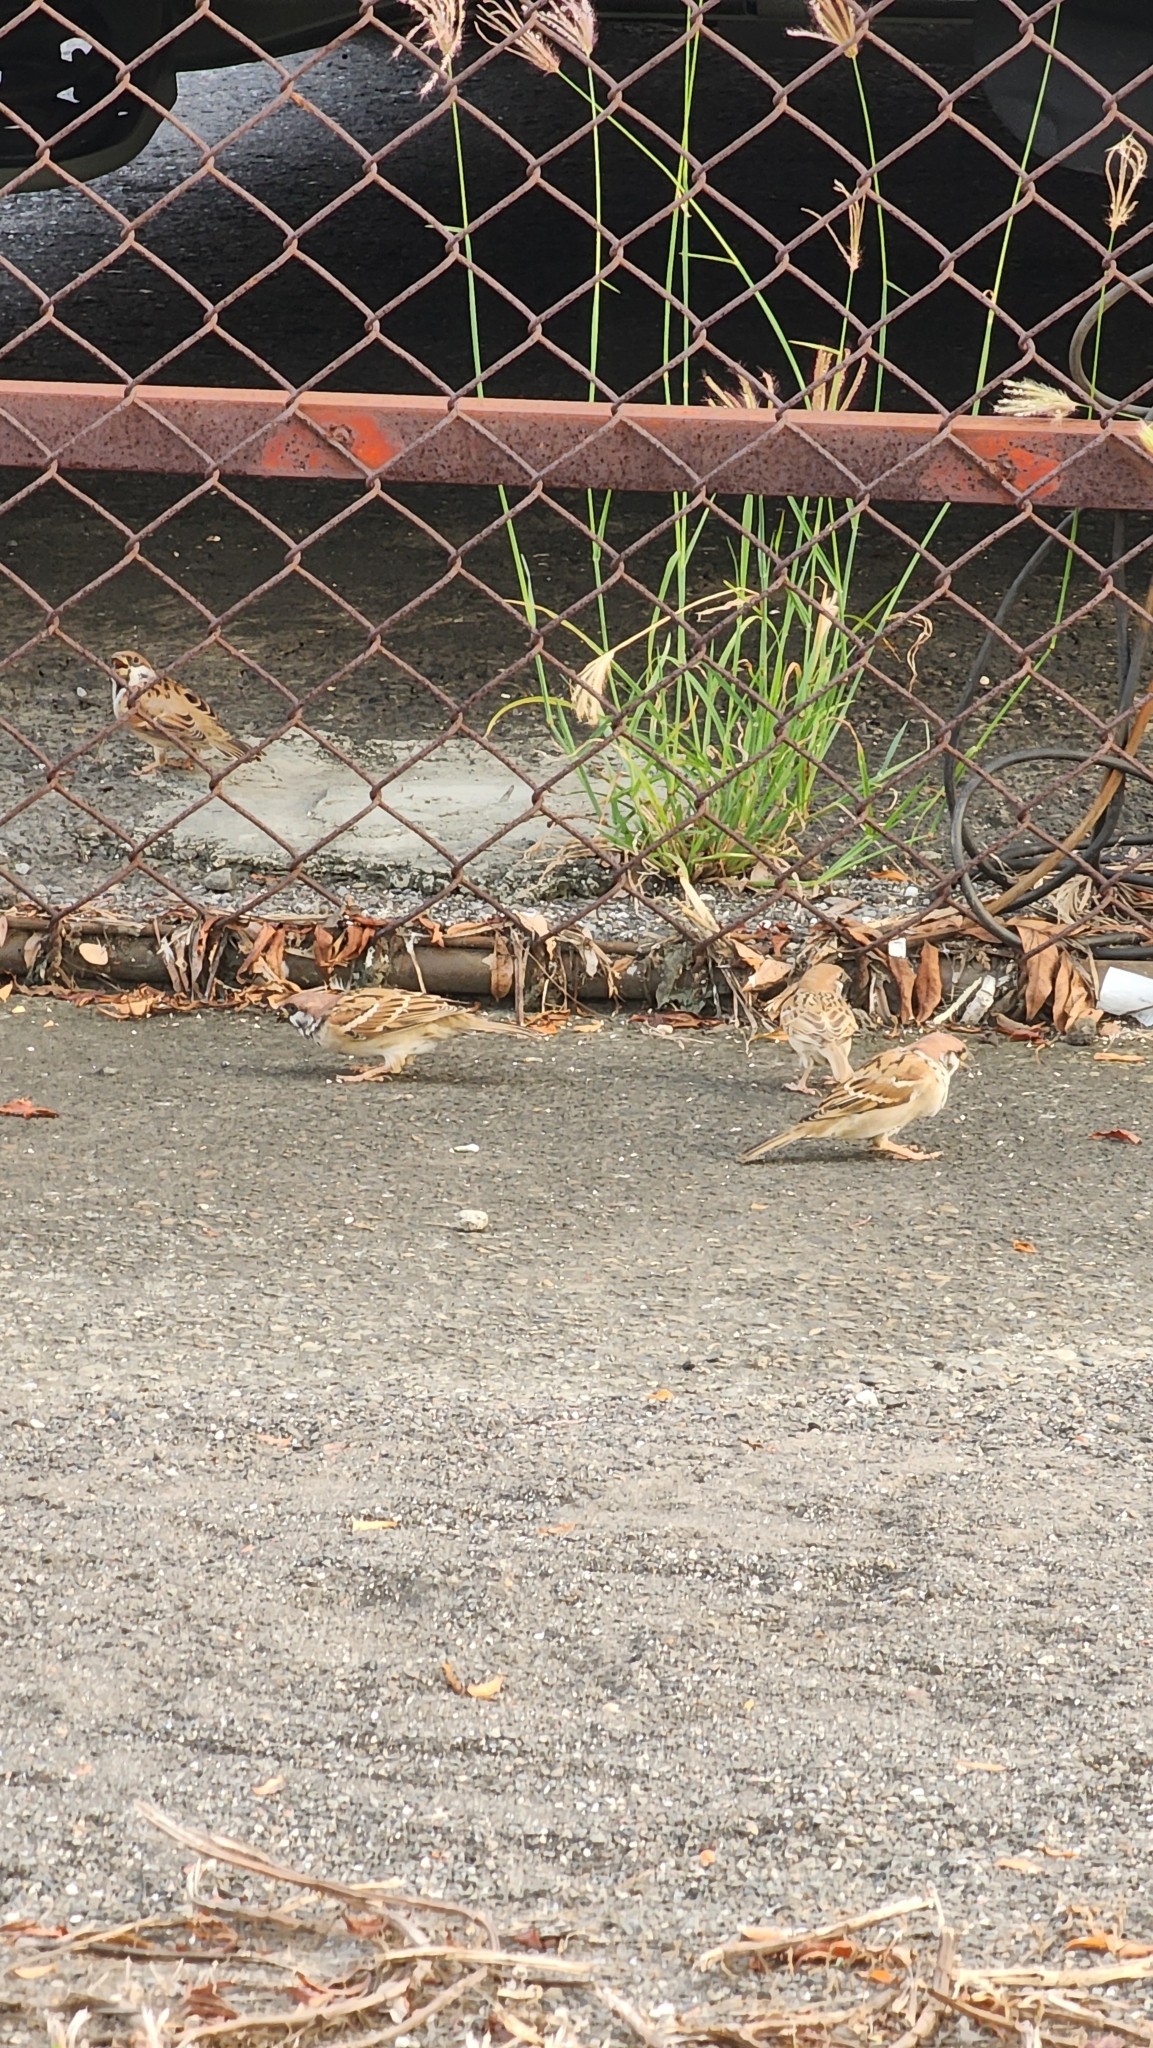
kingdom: Animalia
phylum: Chordata
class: Aves
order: Passeriformes
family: Passeridae
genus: Passer
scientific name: Passer montanus
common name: Eurasian tree sparrow
